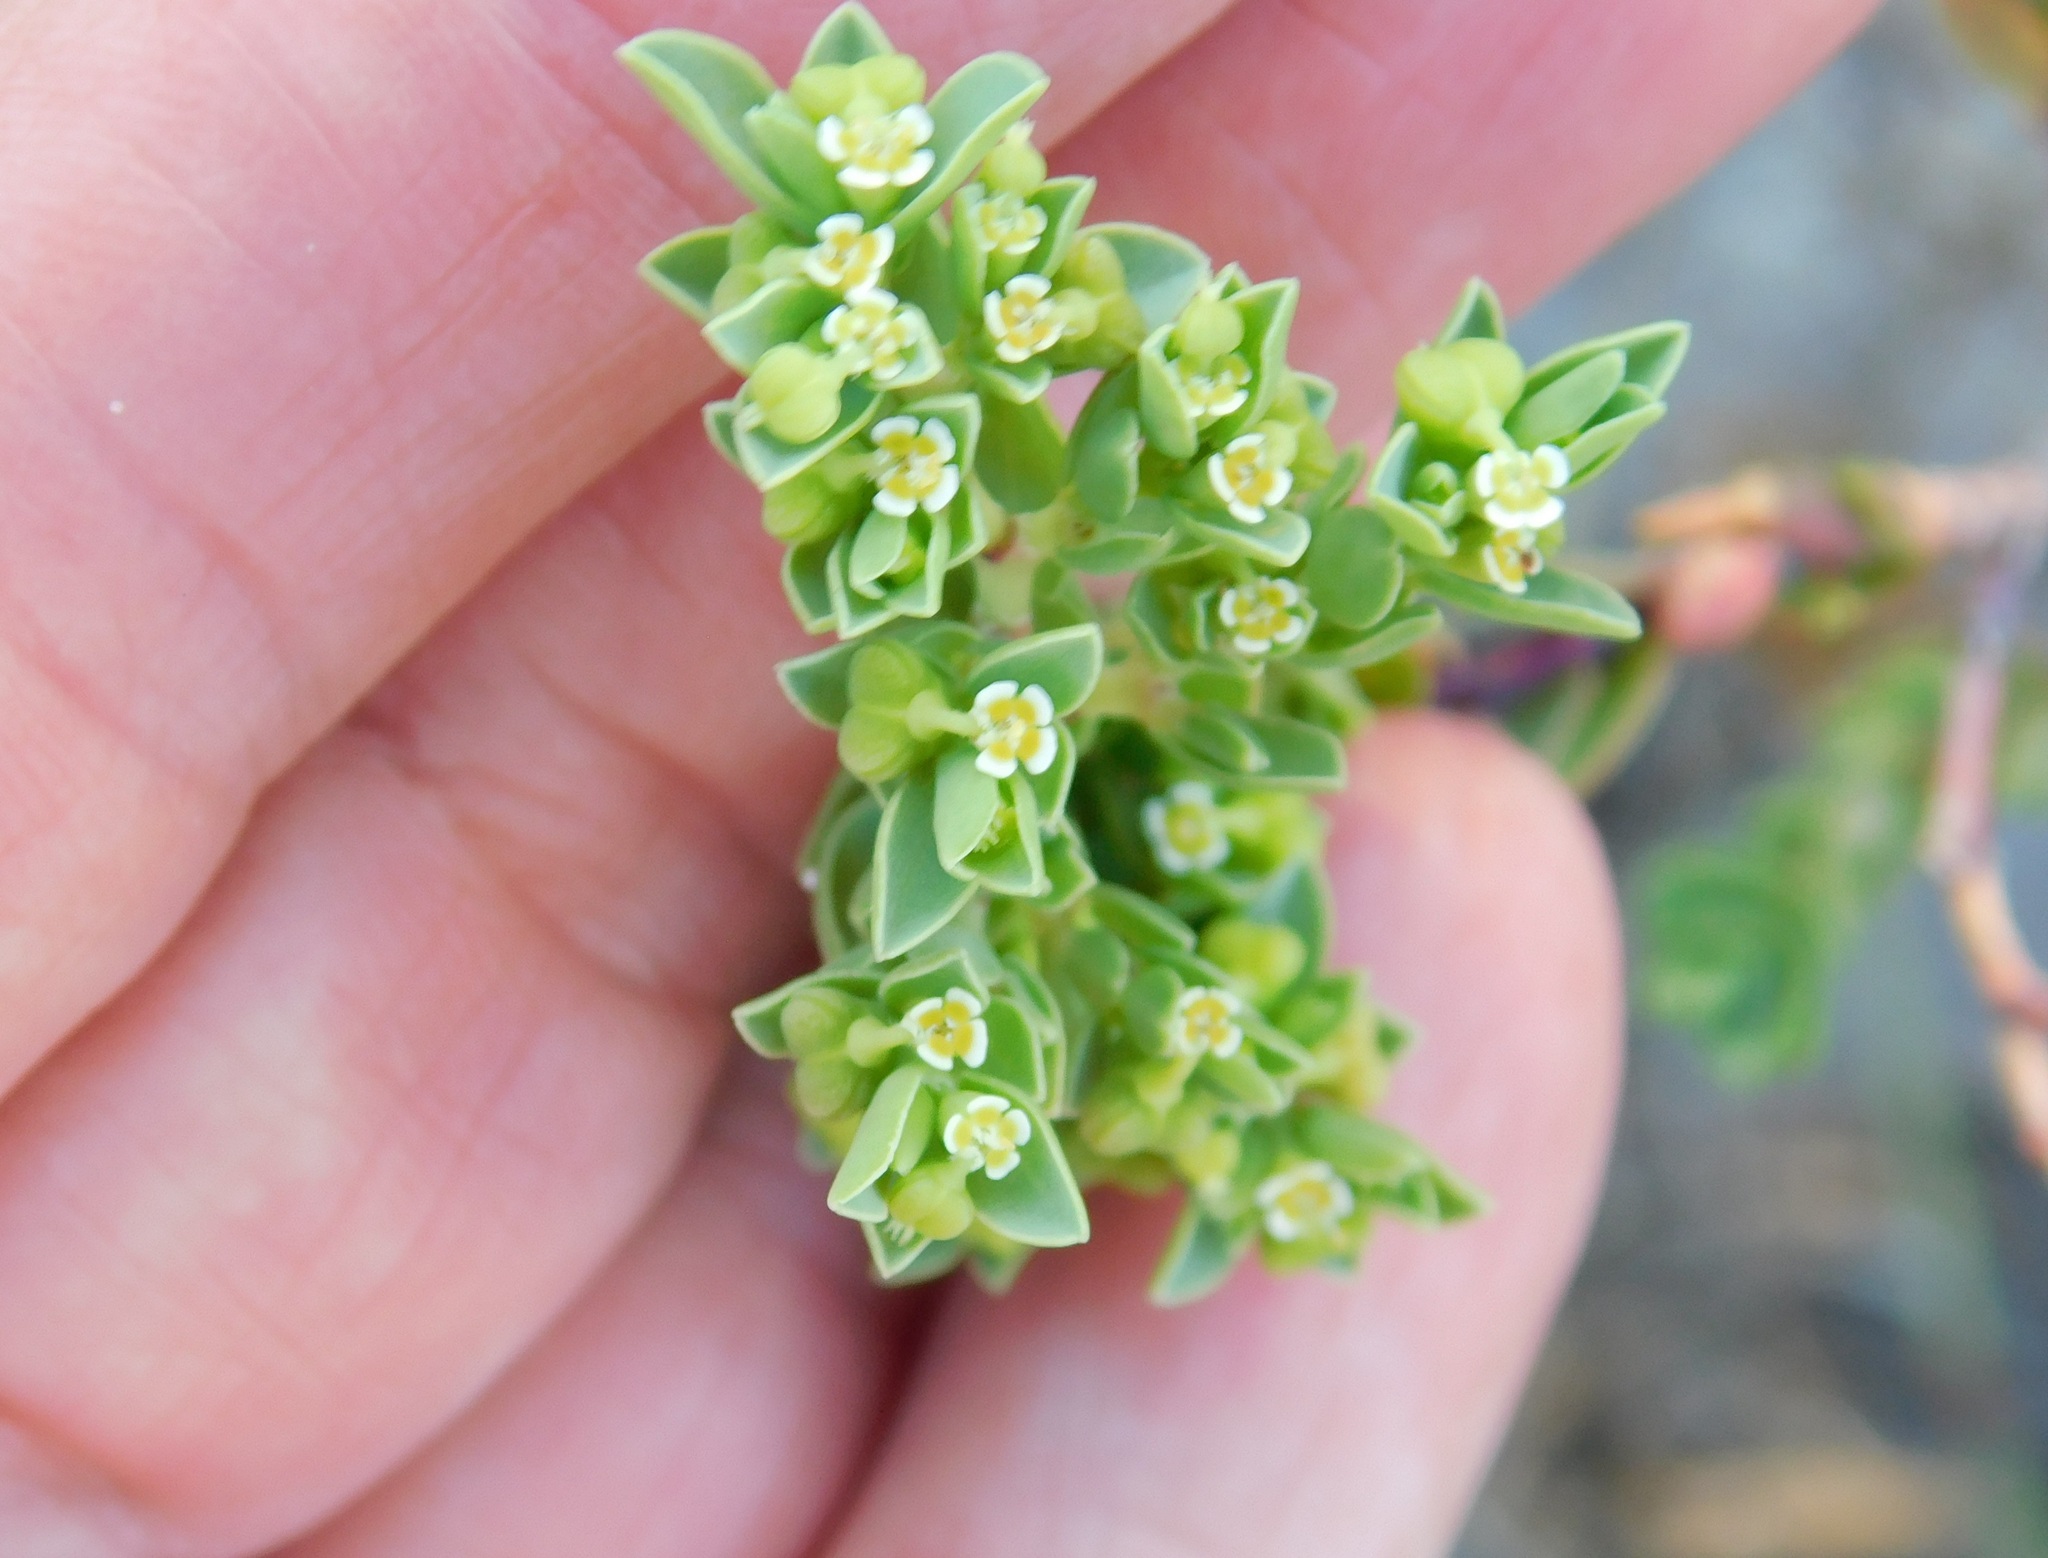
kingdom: Plantae
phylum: Tracheophyta
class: Magnoliopsida
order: Malpighiales
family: Euphorbiaceae
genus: Euphorbia
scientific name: Euphorbia mesembryanthemifolia
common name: Coastal beach sandmat
